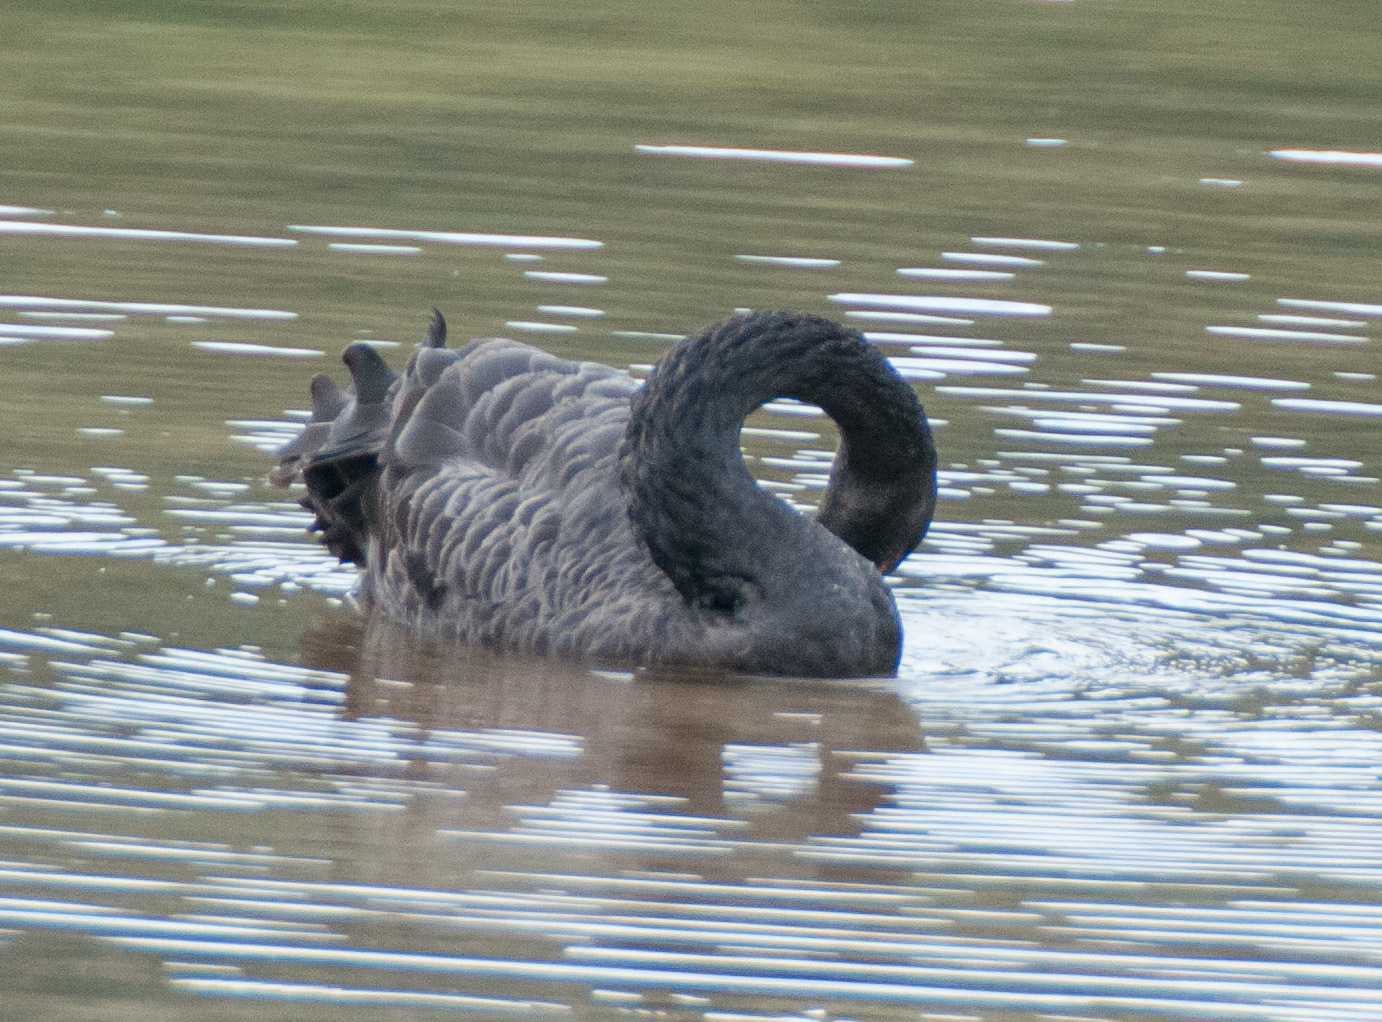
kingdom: Animalia
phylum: Chordata
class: Aves
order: Anseriformes
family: Anatidae
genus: Cygnus
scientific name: Cygnus atratus
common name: Black swan
